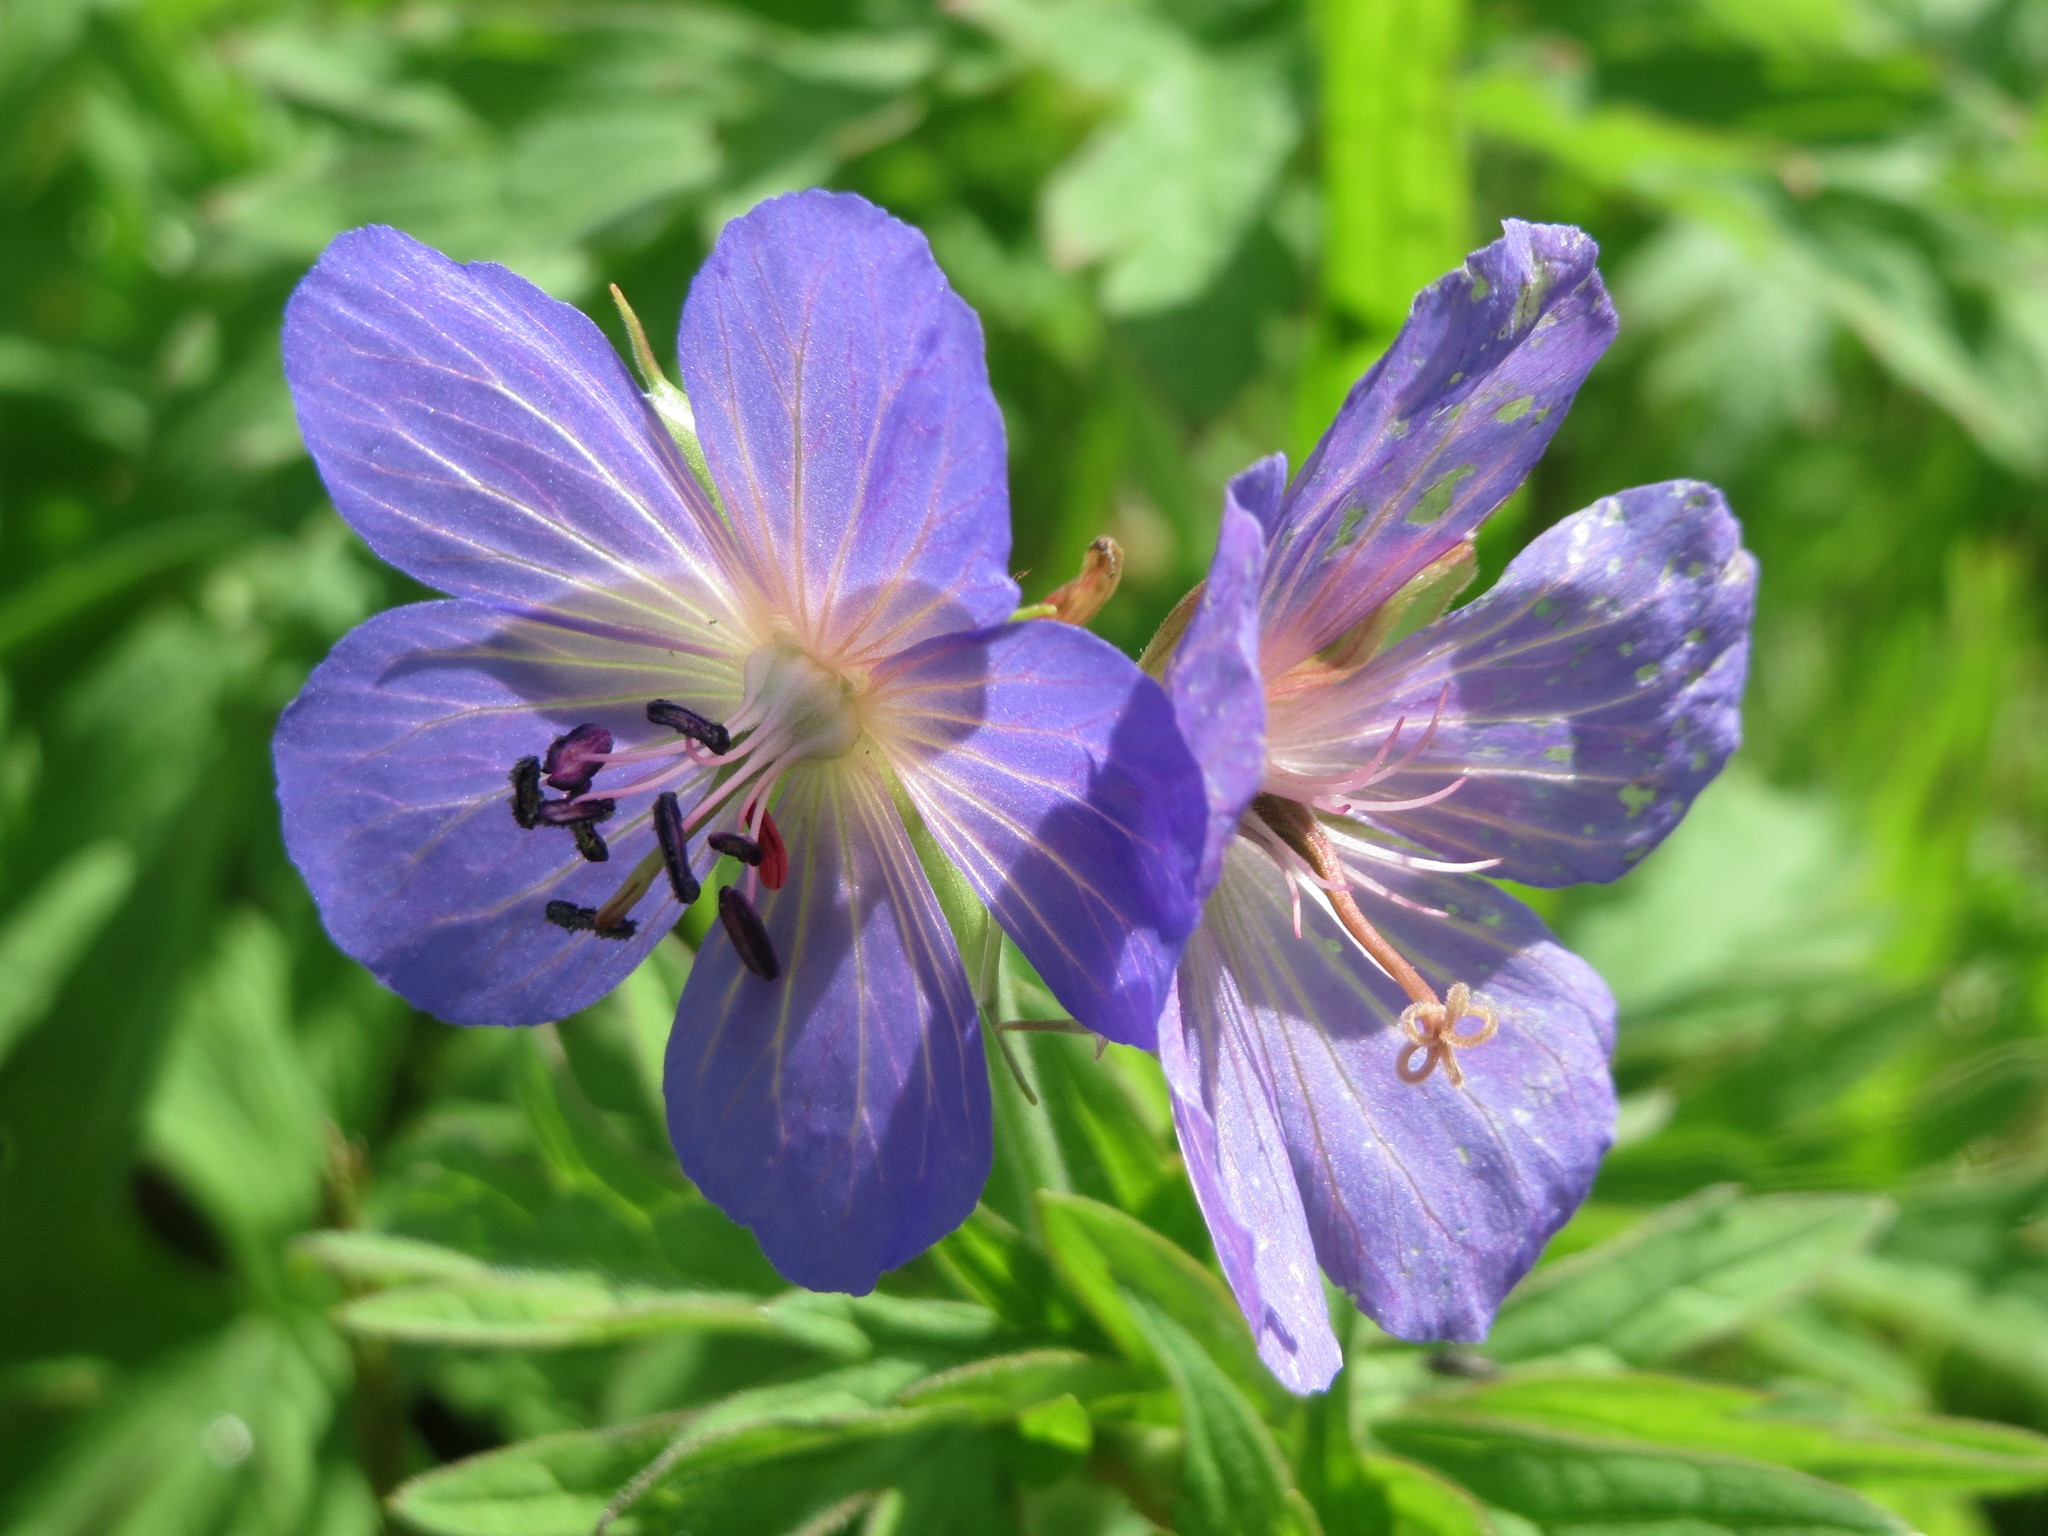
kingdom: Plantae
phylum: Tracheophyta
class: Magnoliopsida
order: Geraniales
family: Geraniaceae
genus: Geranium
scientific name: Geranium pratense
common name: Meadow crane's-bill
